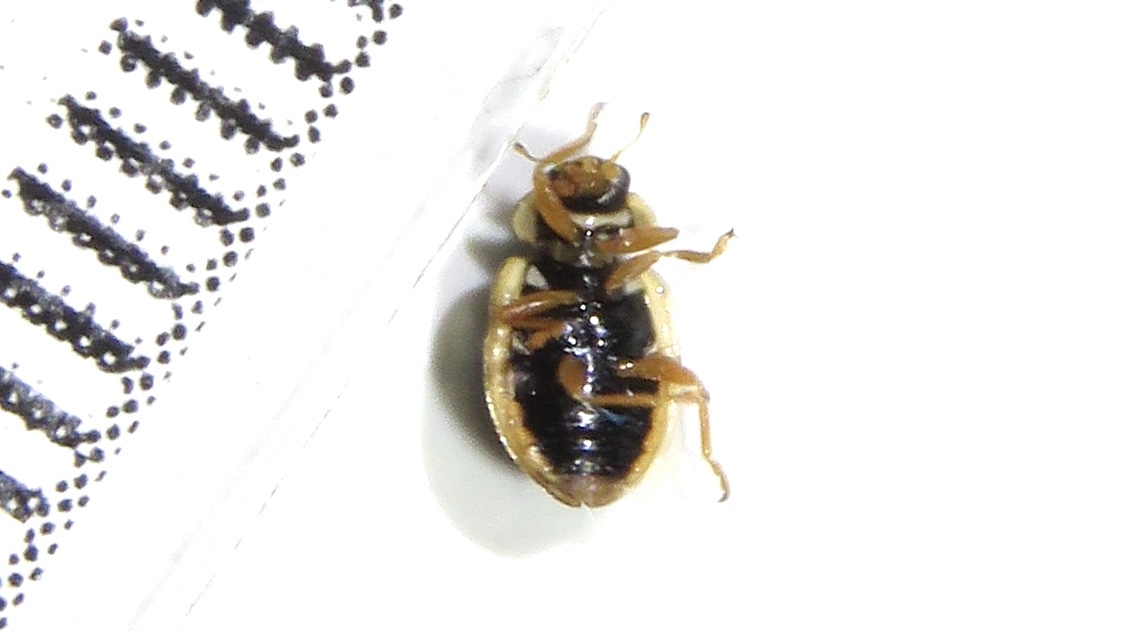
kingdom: Animalia
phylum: Arthropoda
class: Insecta
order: Coleoptera
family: Coccinellidae
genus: Anisosticta
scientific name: Anisosticta bitriangularis
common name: Marsh lady beetle
